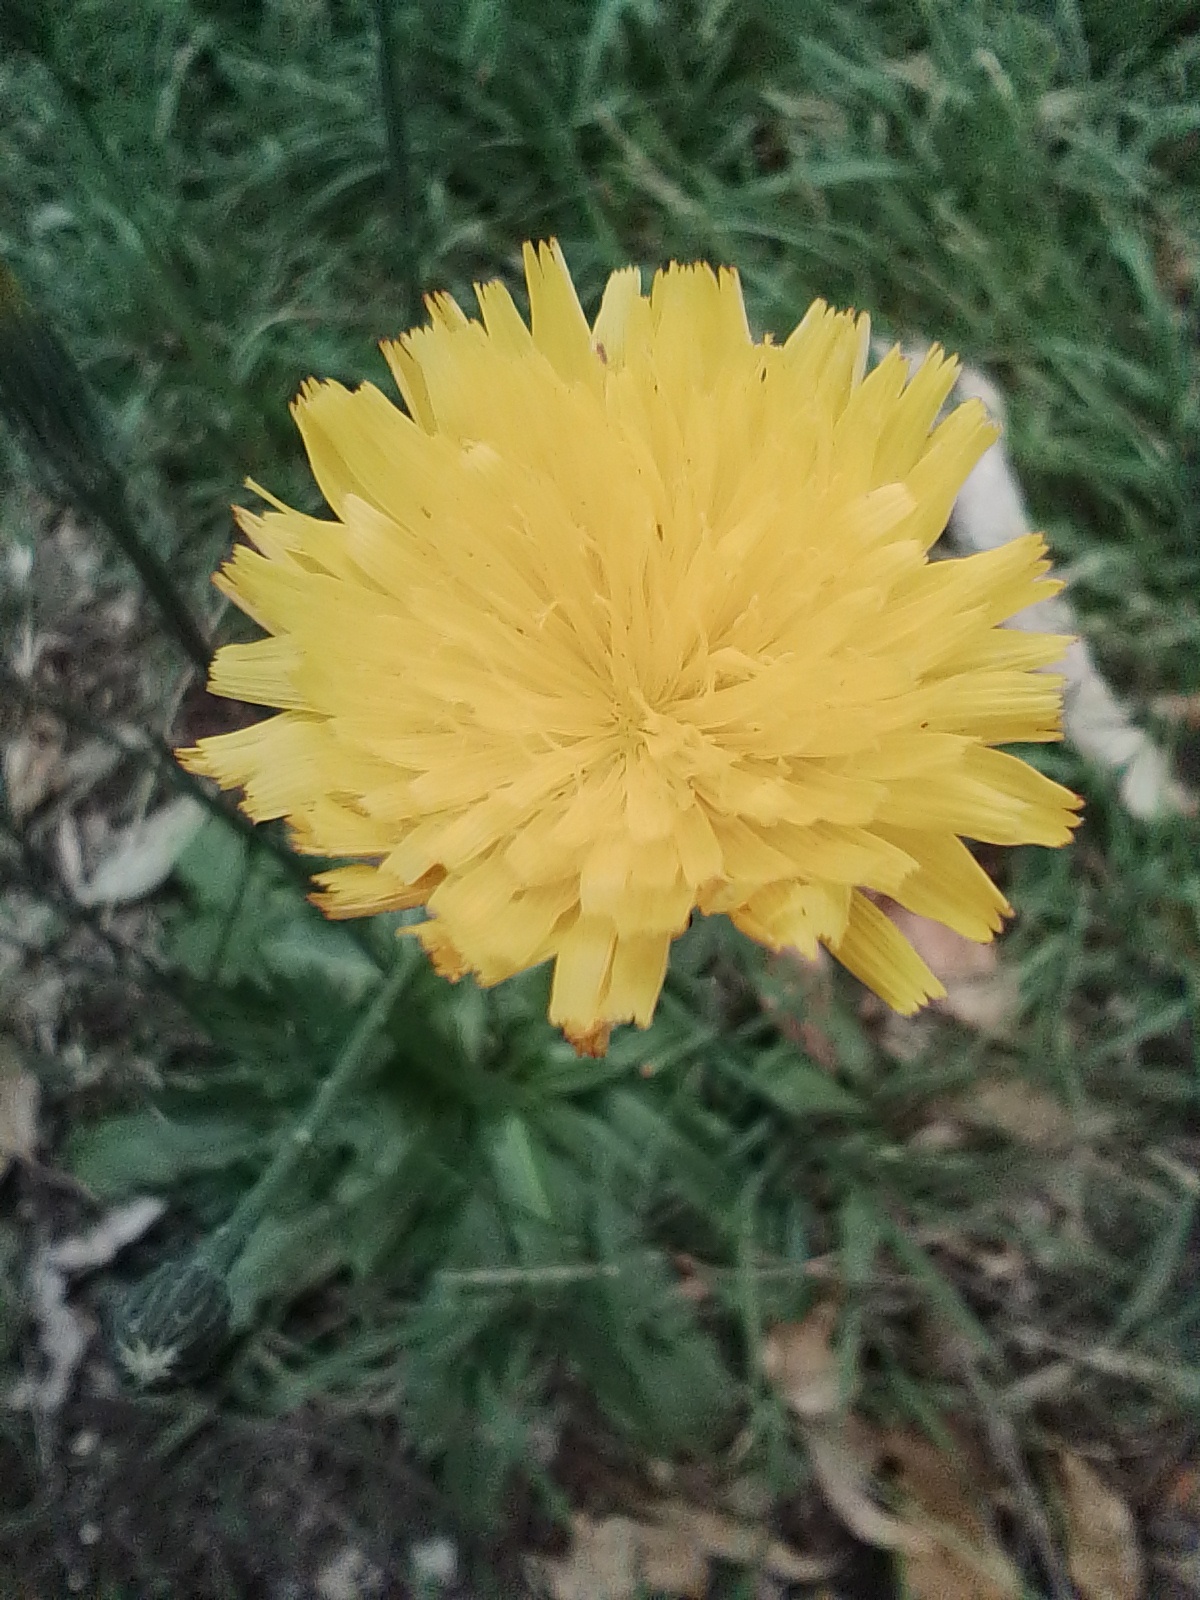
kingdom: Plantae
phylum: Tracheophyta
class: Magnoliopsida
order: Asterales
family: Asteraceae
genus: Hypochaeris
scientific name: Hypochaeris radicata
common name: Flatweed
